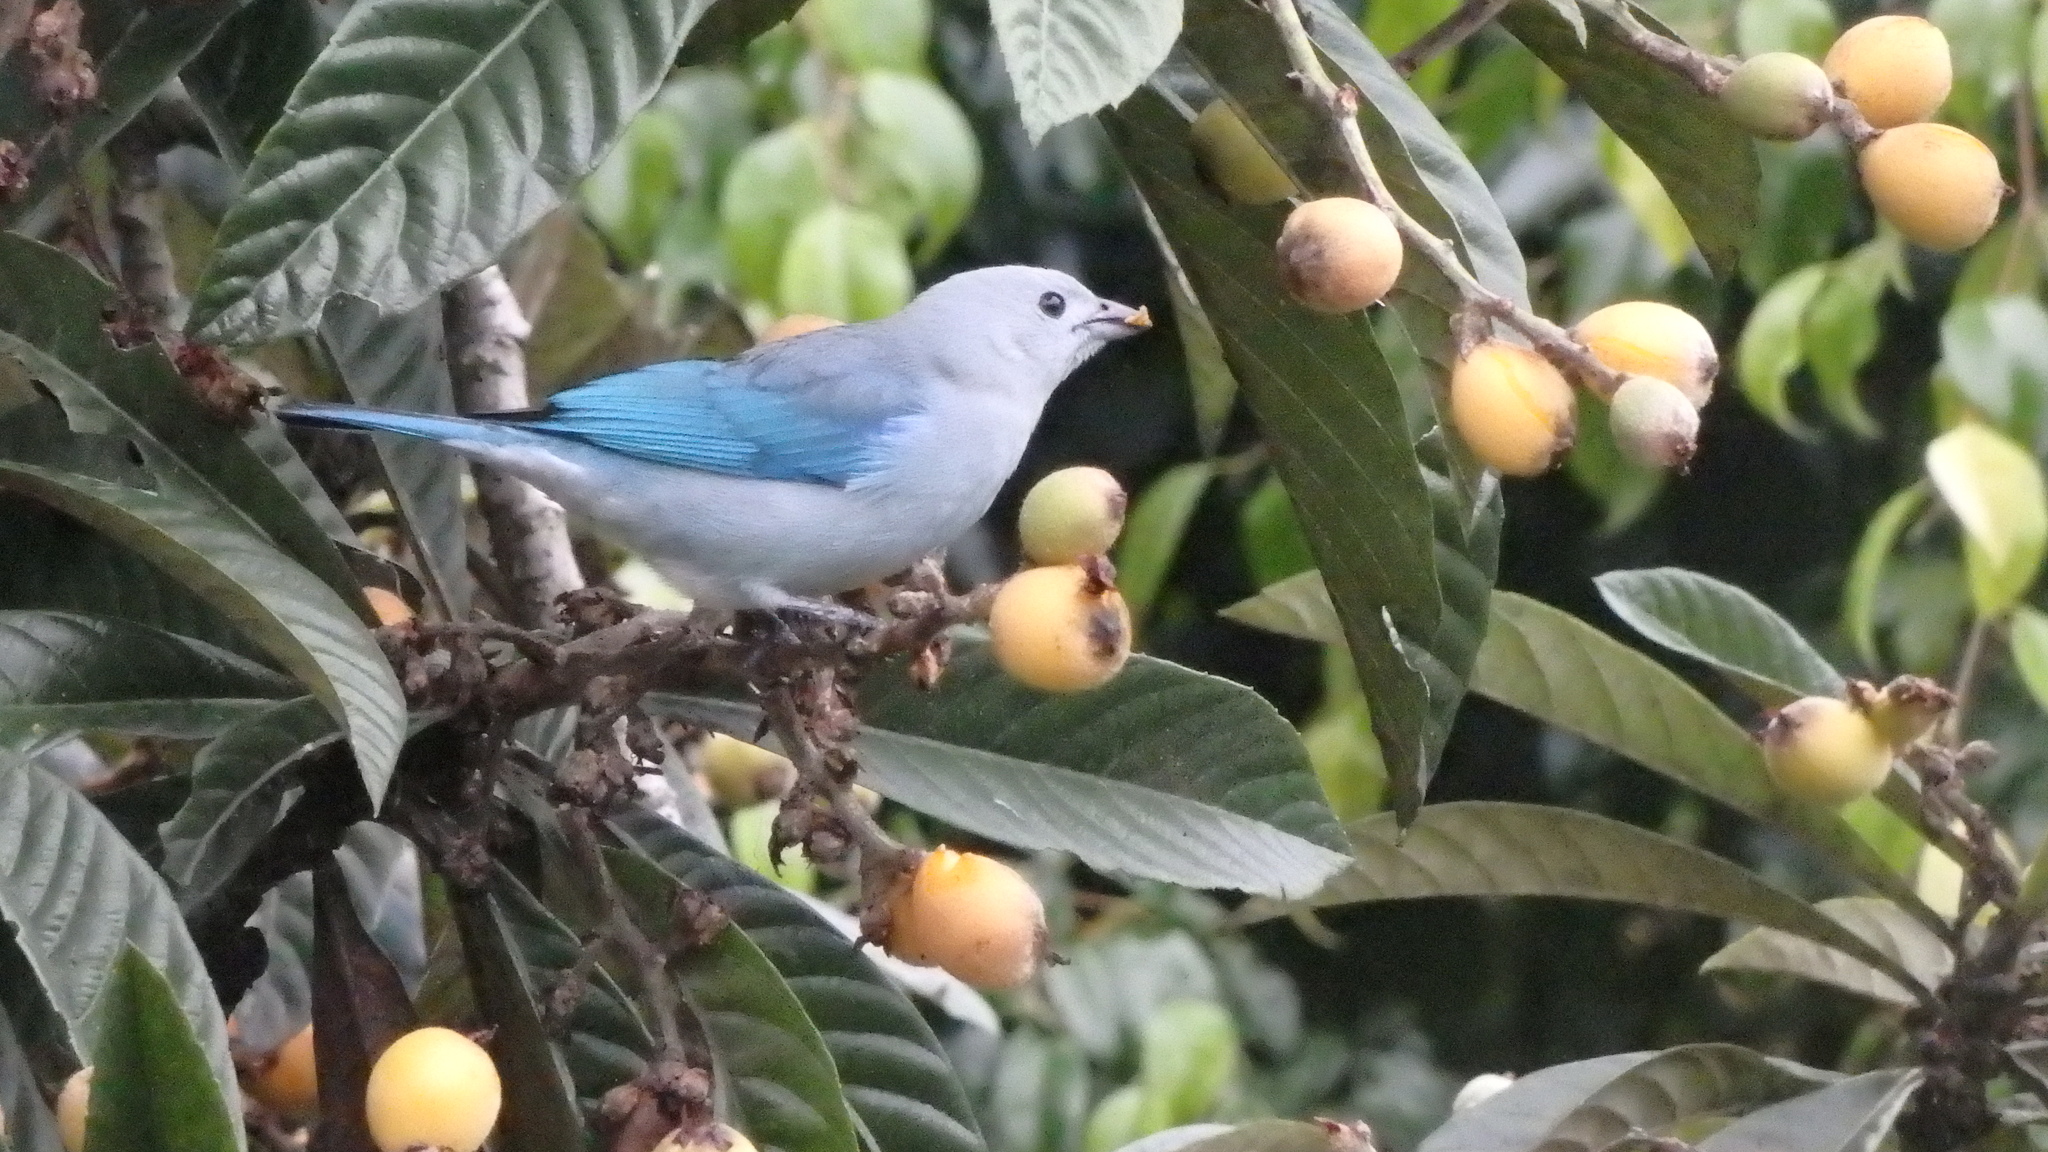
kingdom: Animalia
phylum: Chordata
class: Aves
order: Passeriformes
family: Thraupidae
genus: Thraupis
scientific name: Thraupis episcopus
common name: Blue-grey tanager
